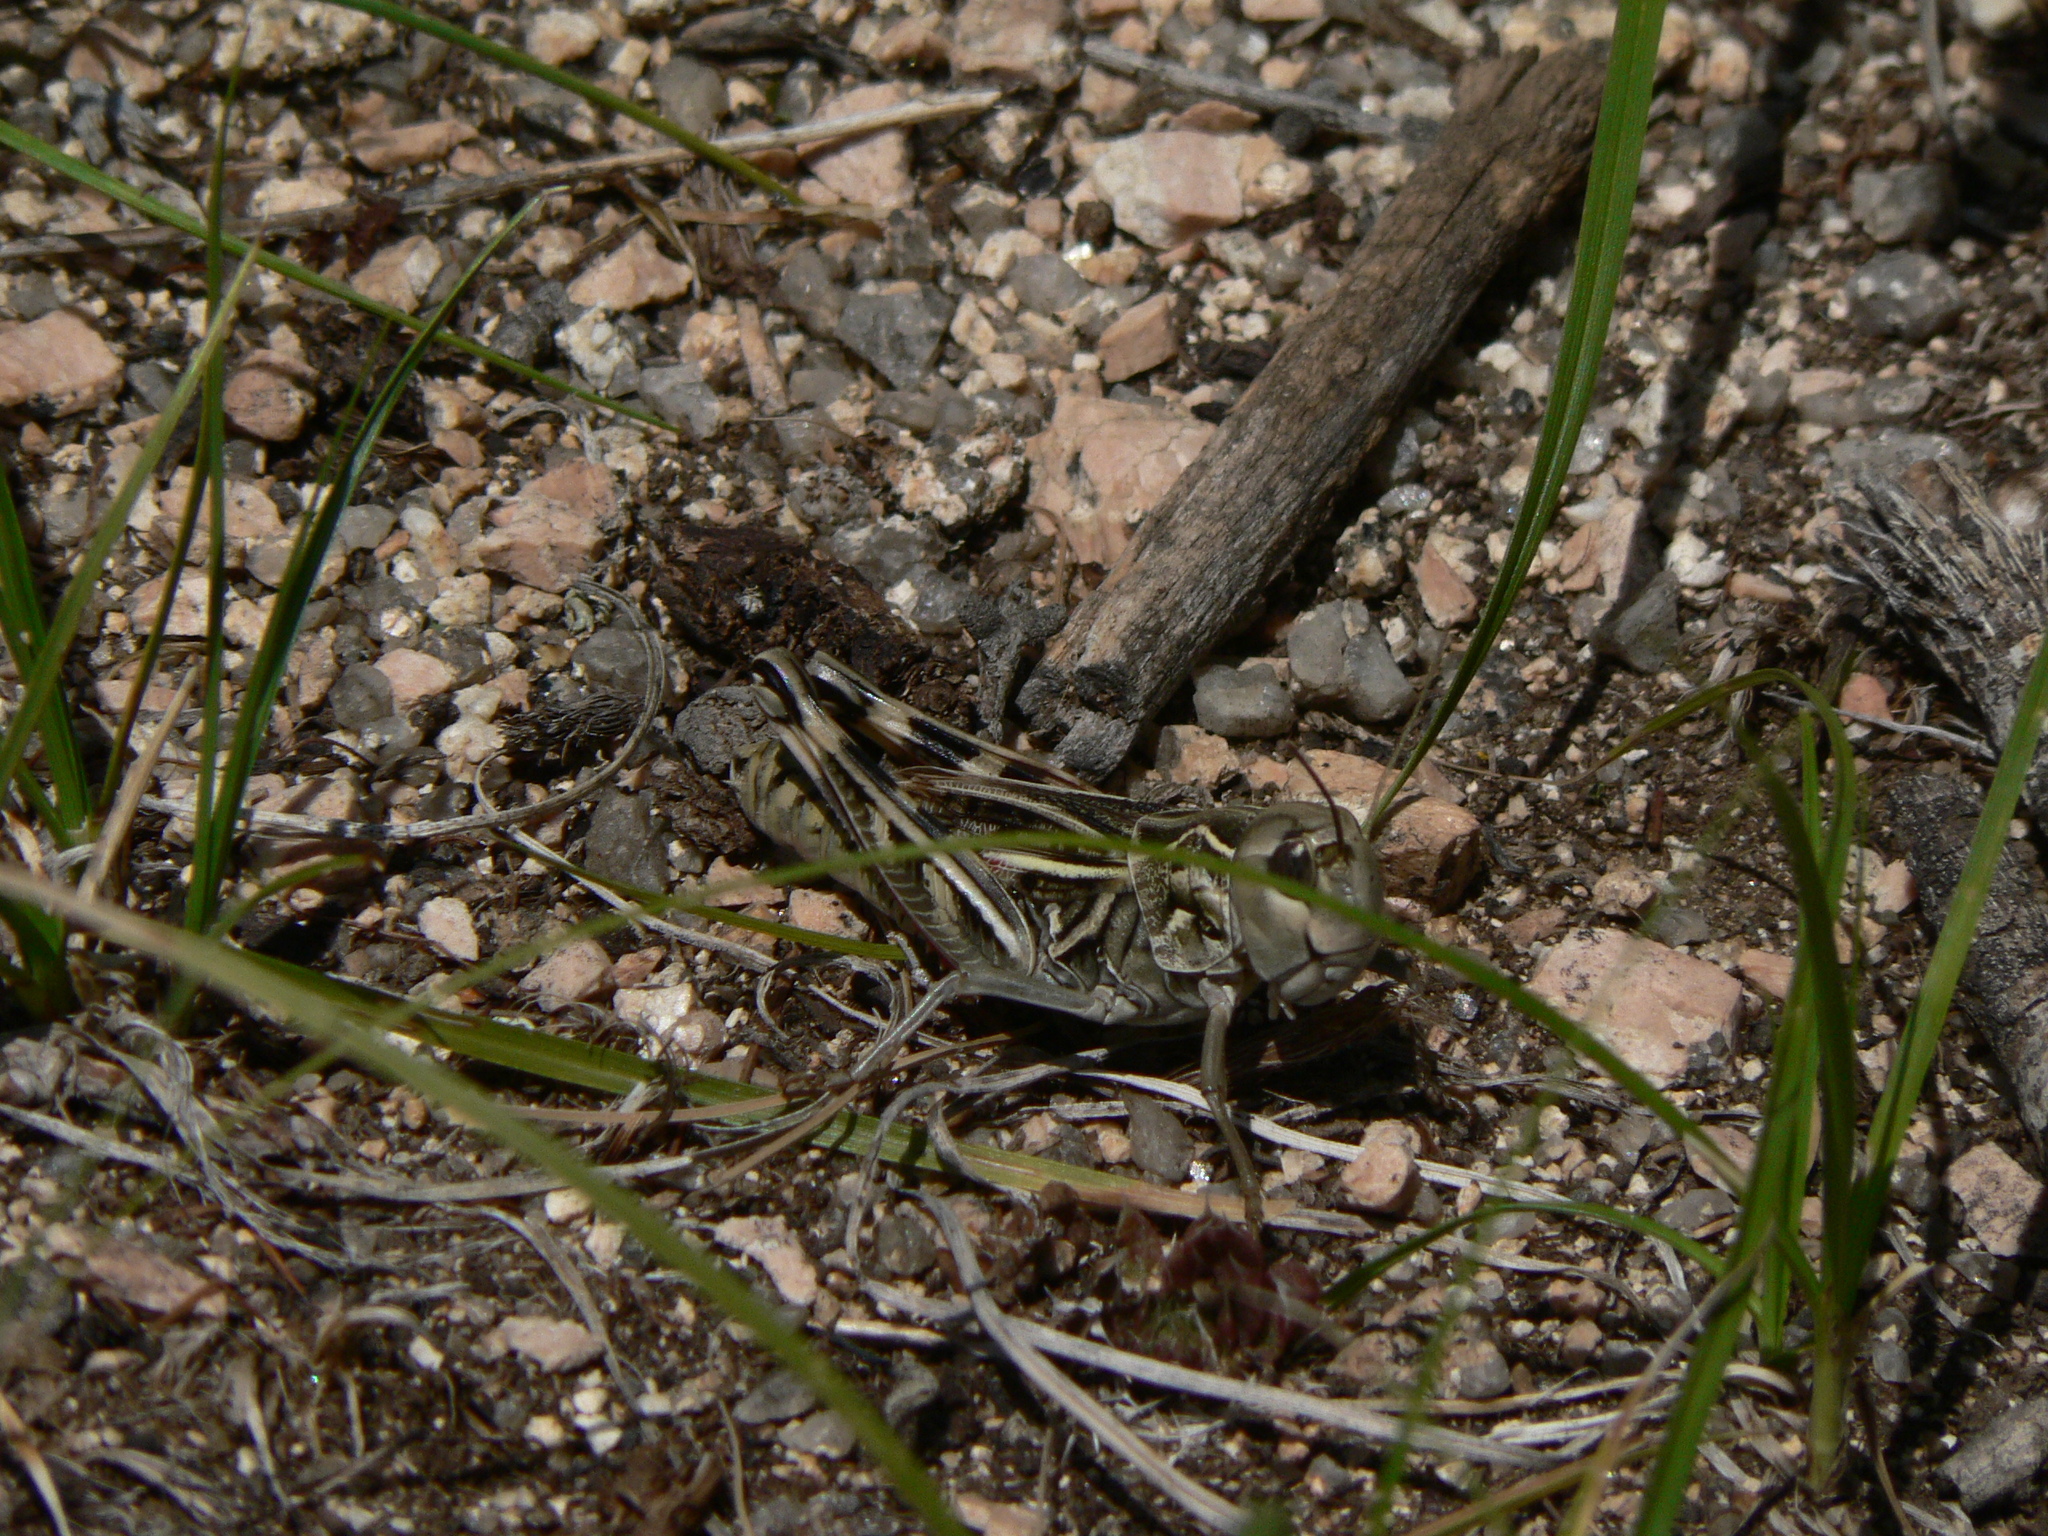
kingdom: Animalia
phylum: Arthropoda
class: Insecta
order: Orthoptera
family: Acrididae
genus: Arcyptera
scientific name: Arcyptera microptera
